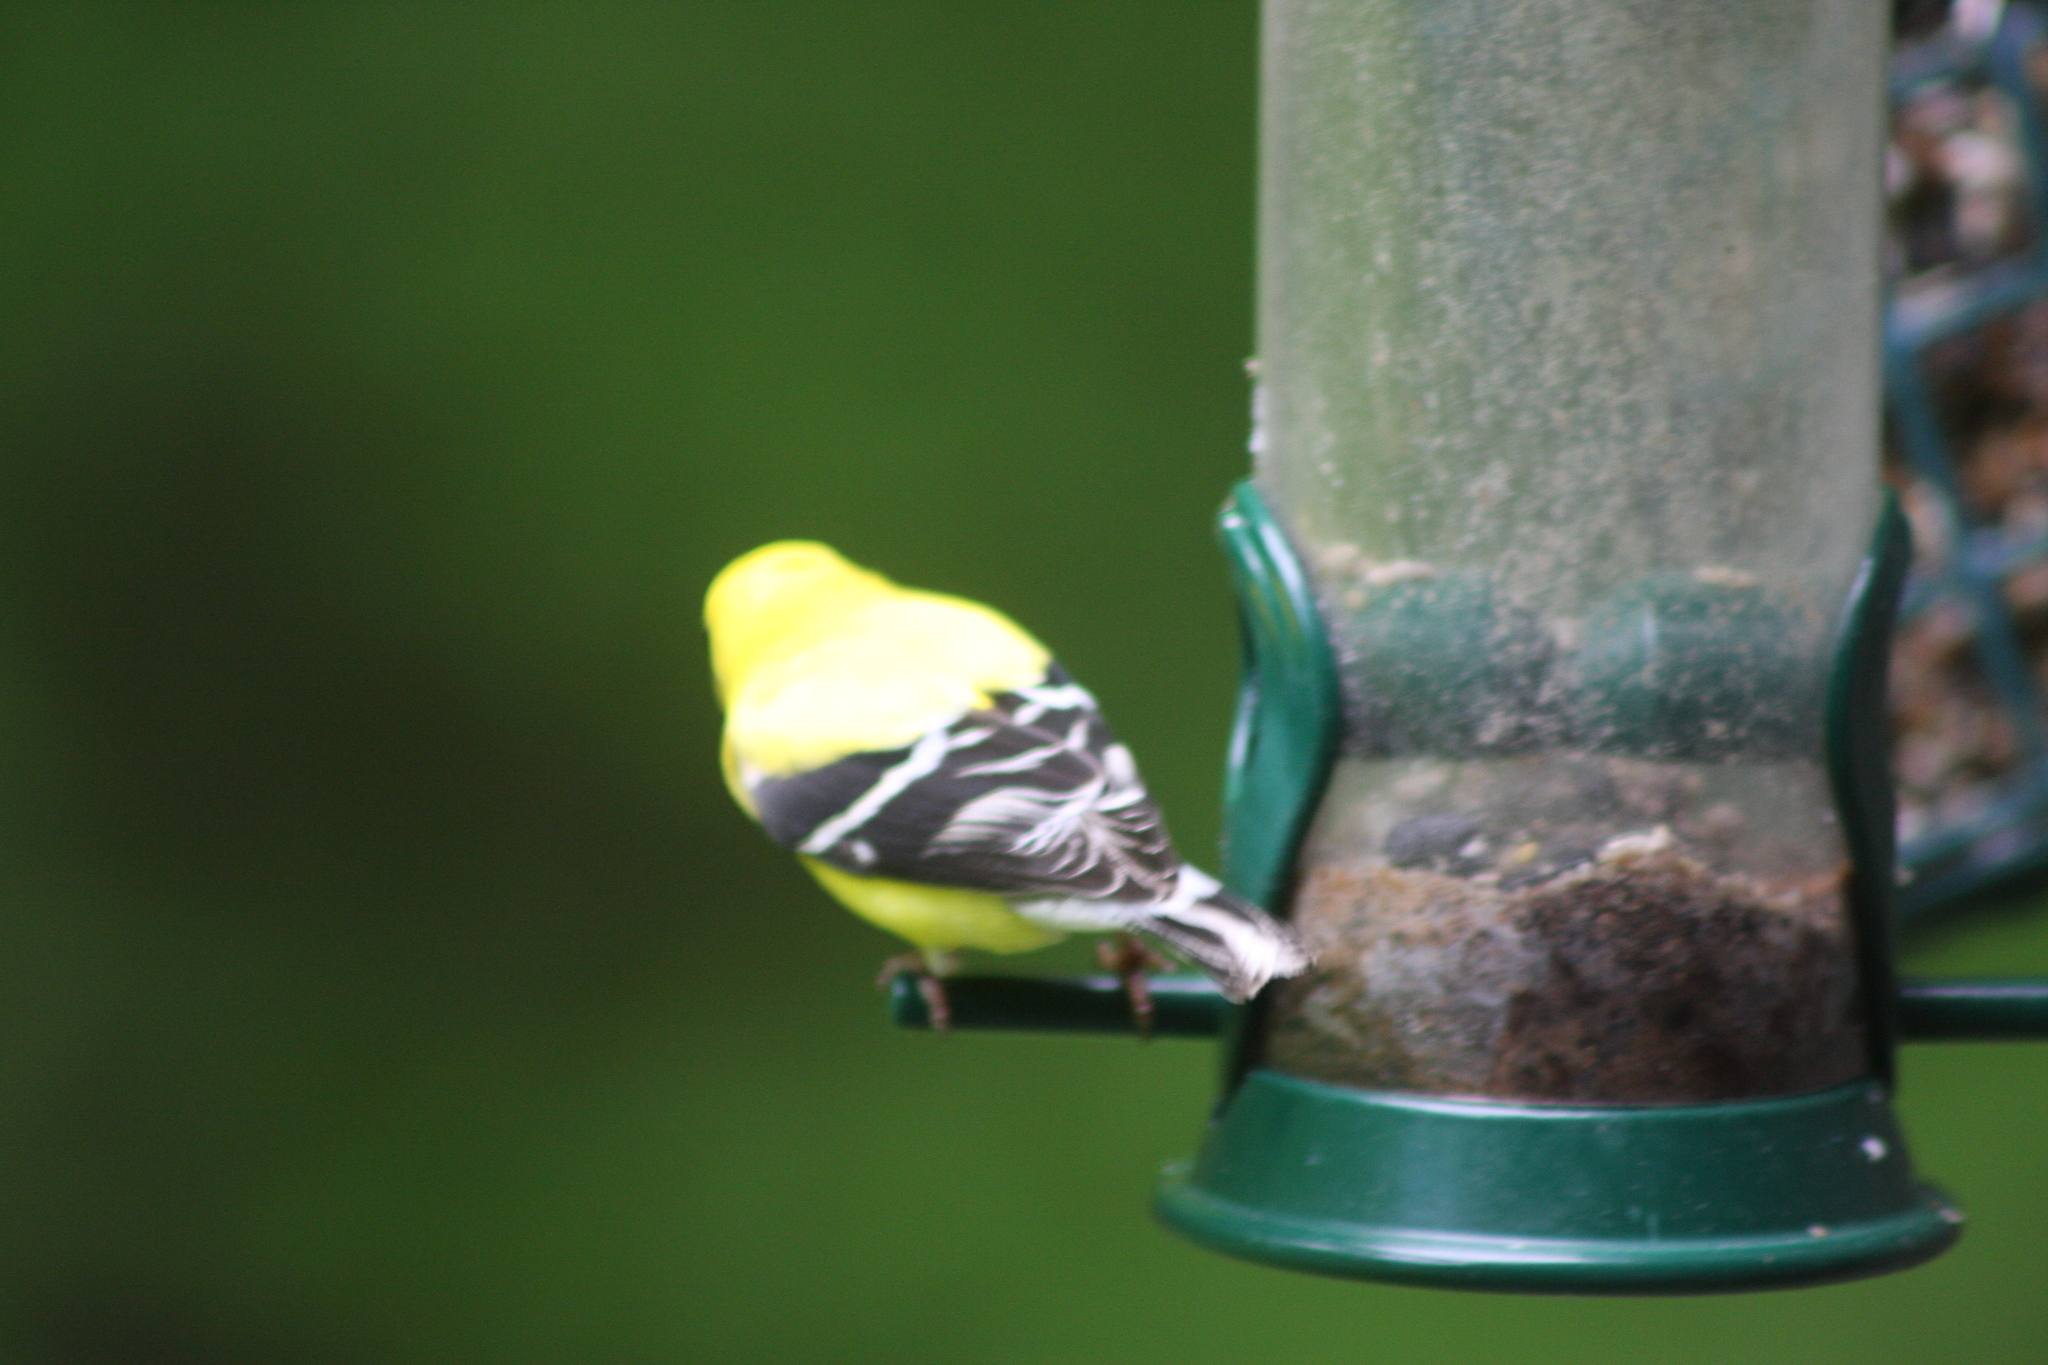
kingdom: Animalia
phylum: Chordata
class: Aves
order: Passeriformes
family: Fringillidae
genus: Spinus
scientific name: Spinus tristis
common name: American goldfinch
